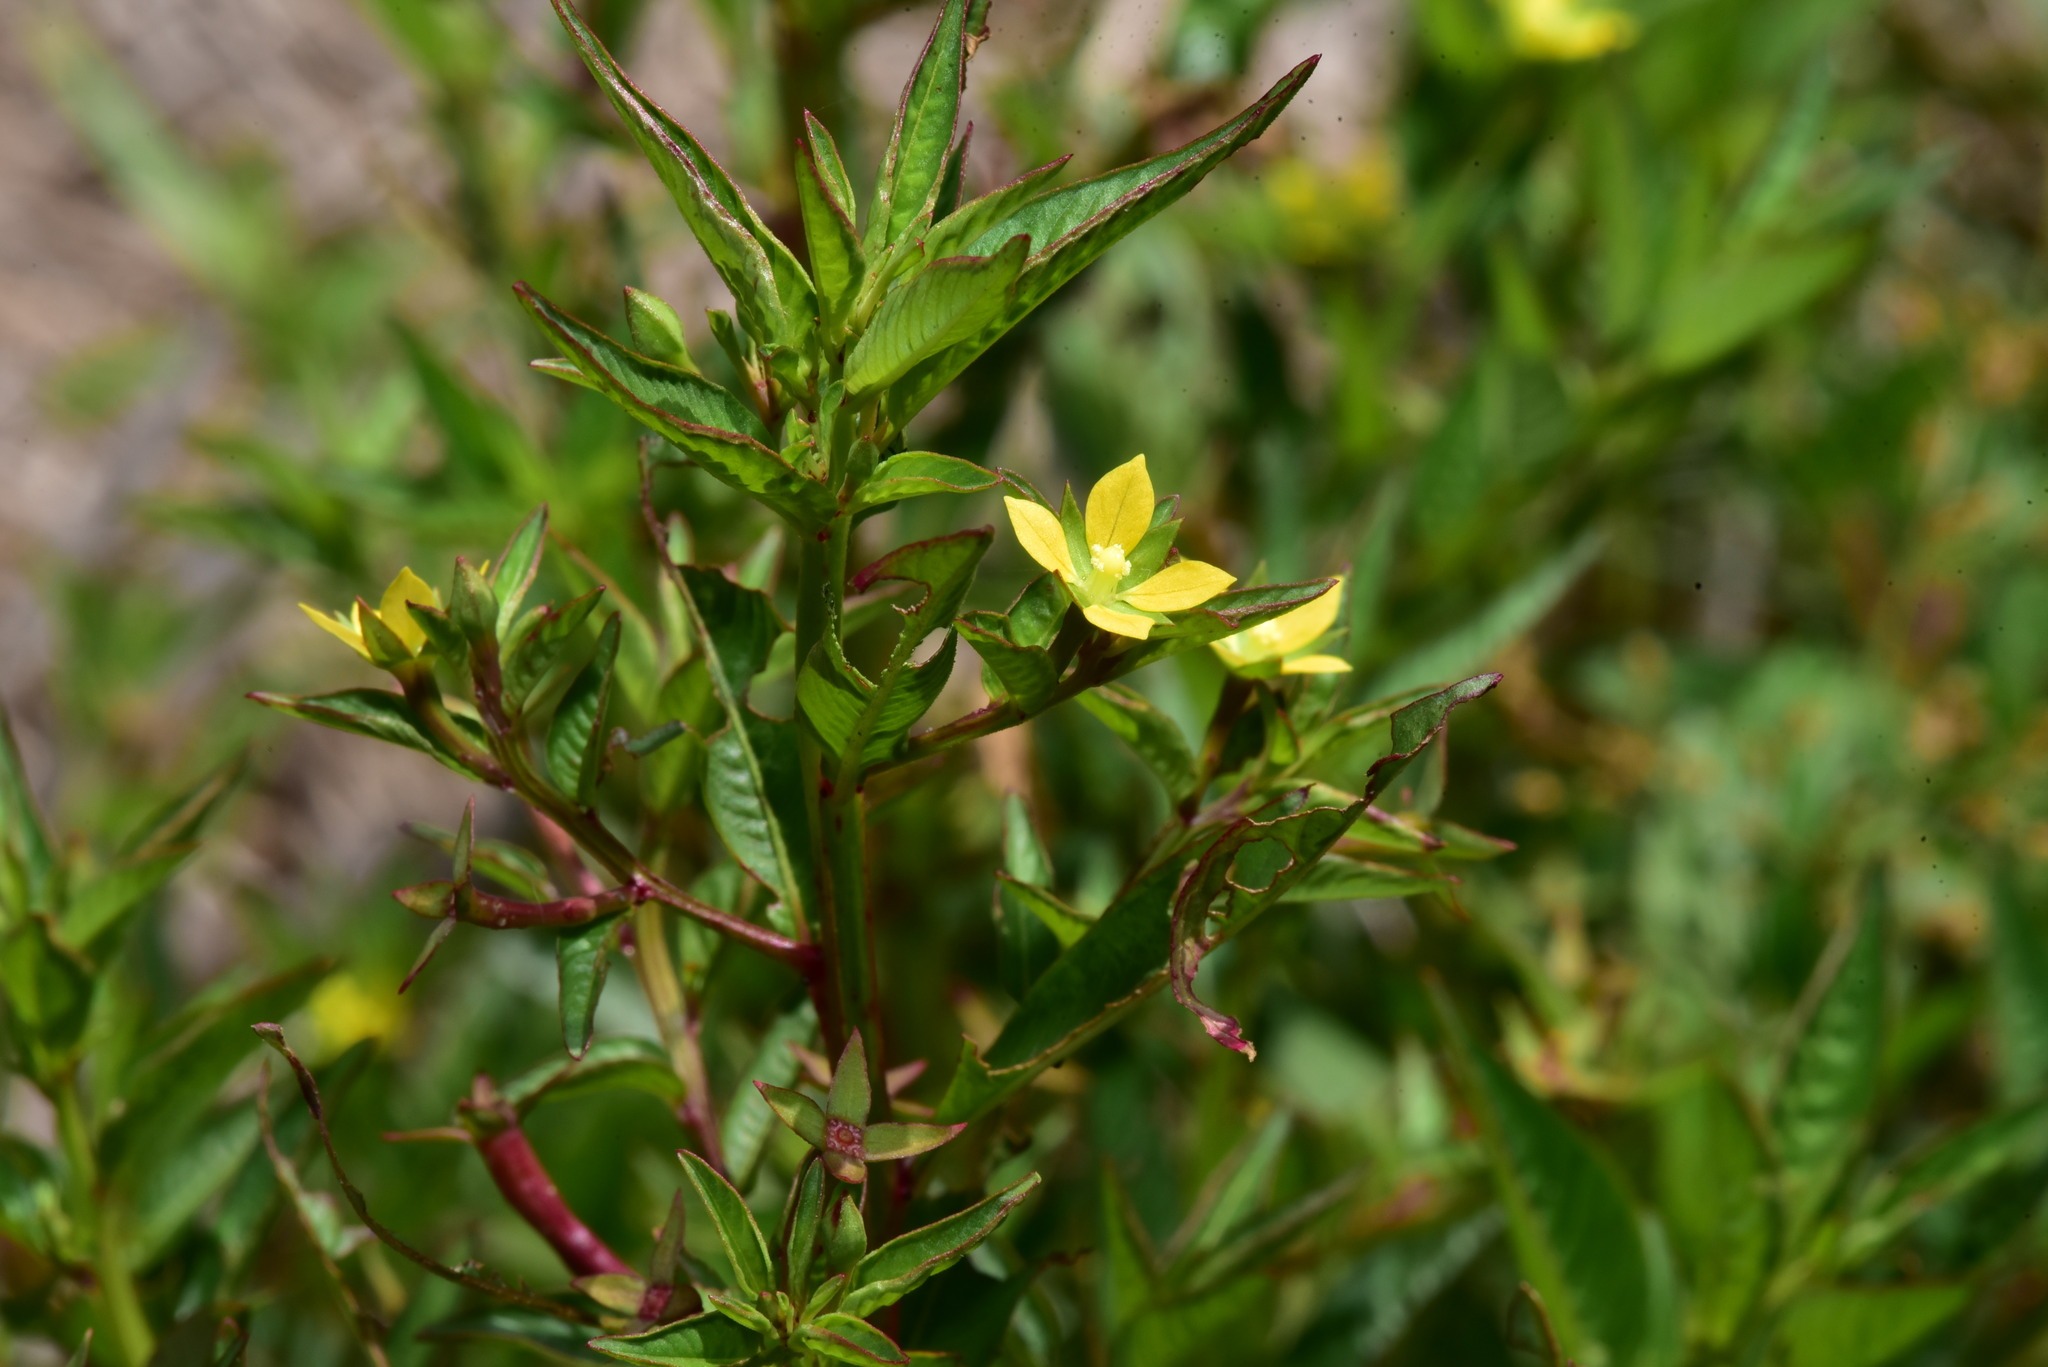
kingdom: Plantae
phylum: Tracheophyta
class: Magnoliopsida
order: Myrtales
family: Onagraceae
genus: Ludwigia
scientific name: Ludwigia hyssopifolia
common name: Linear leaf water primrose
